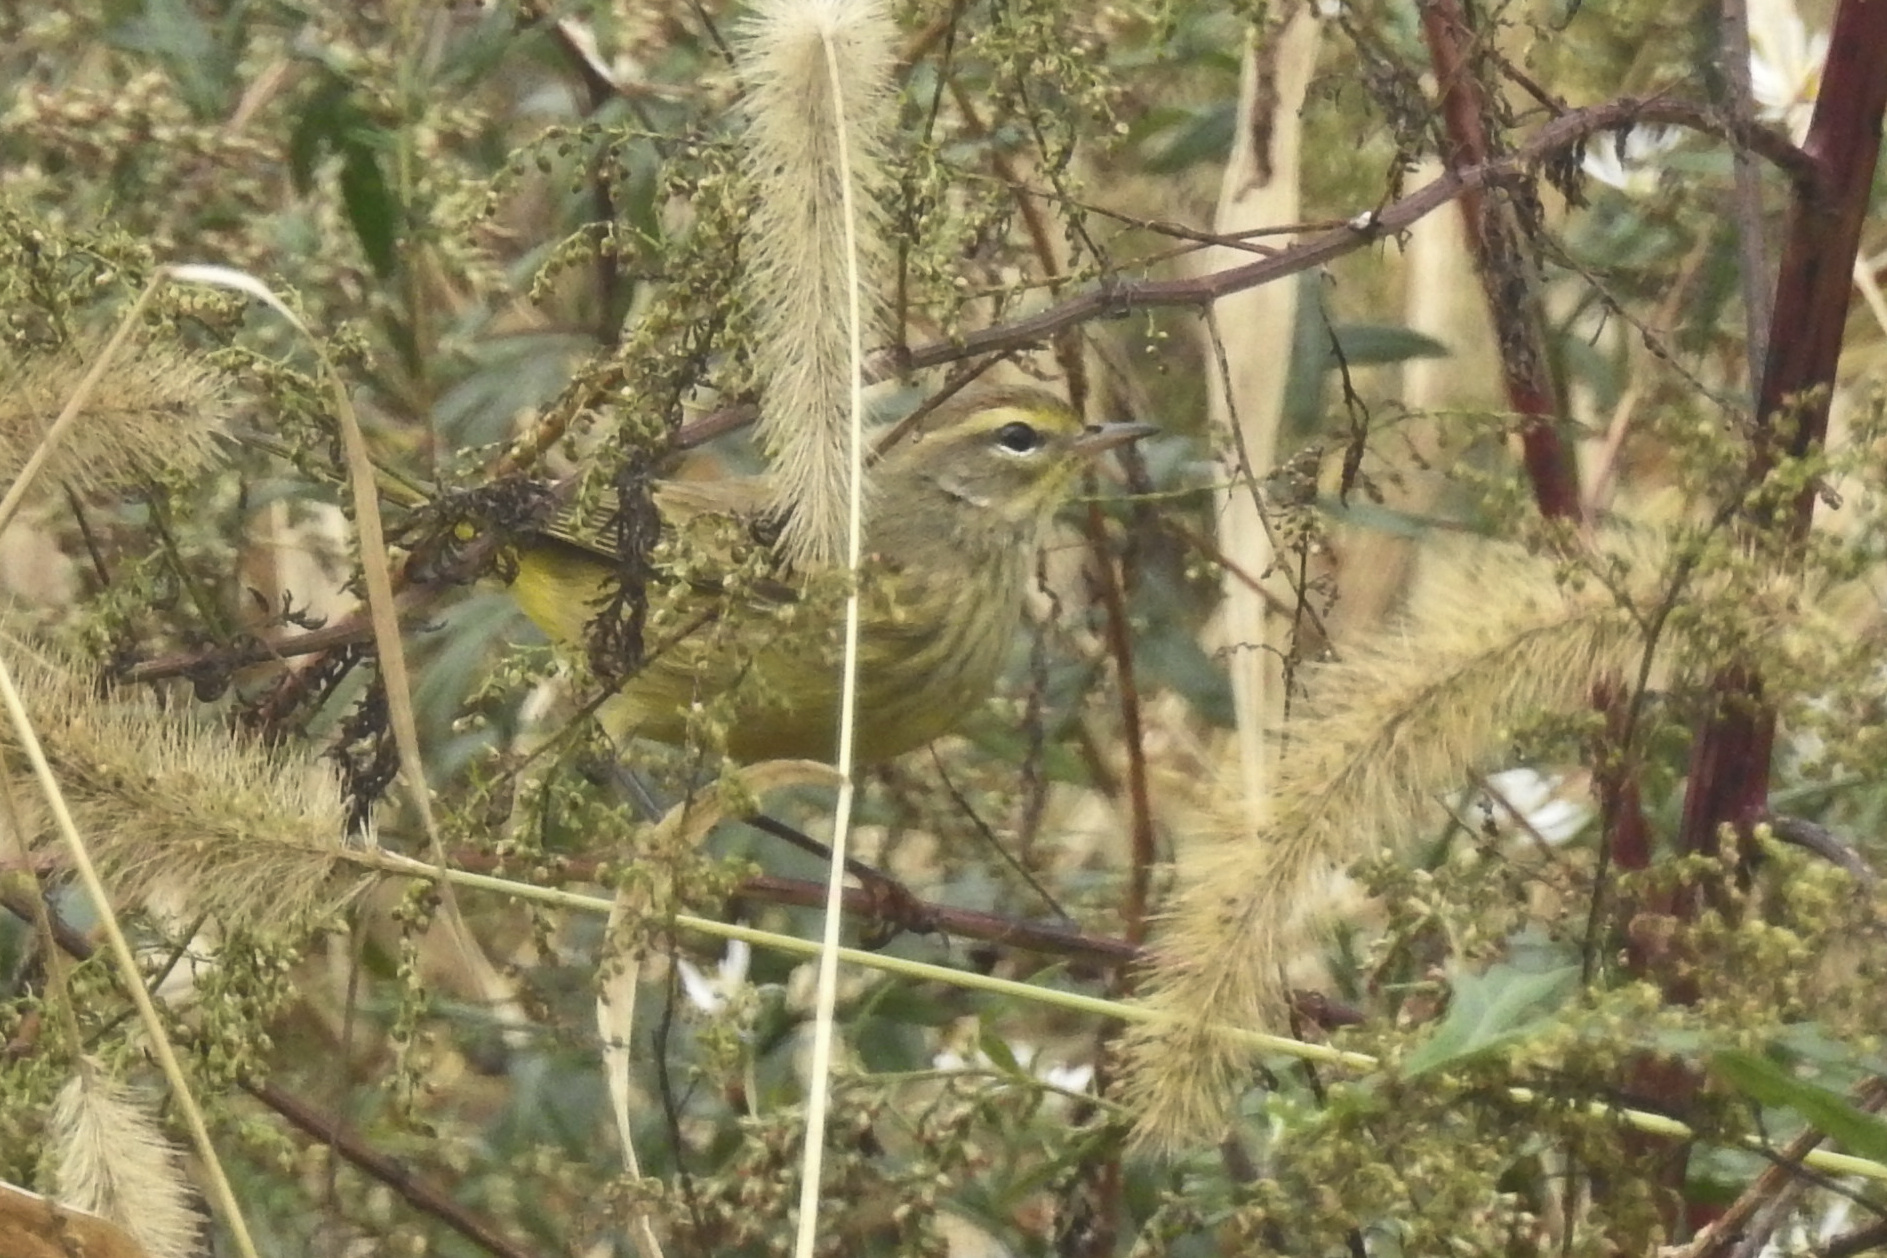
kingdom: Animalia
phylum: Chordata
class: Aves
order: Passeriformes
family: Parulidae
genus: Setophaga
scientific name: Setophaga palmarum
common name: Palm warbler
